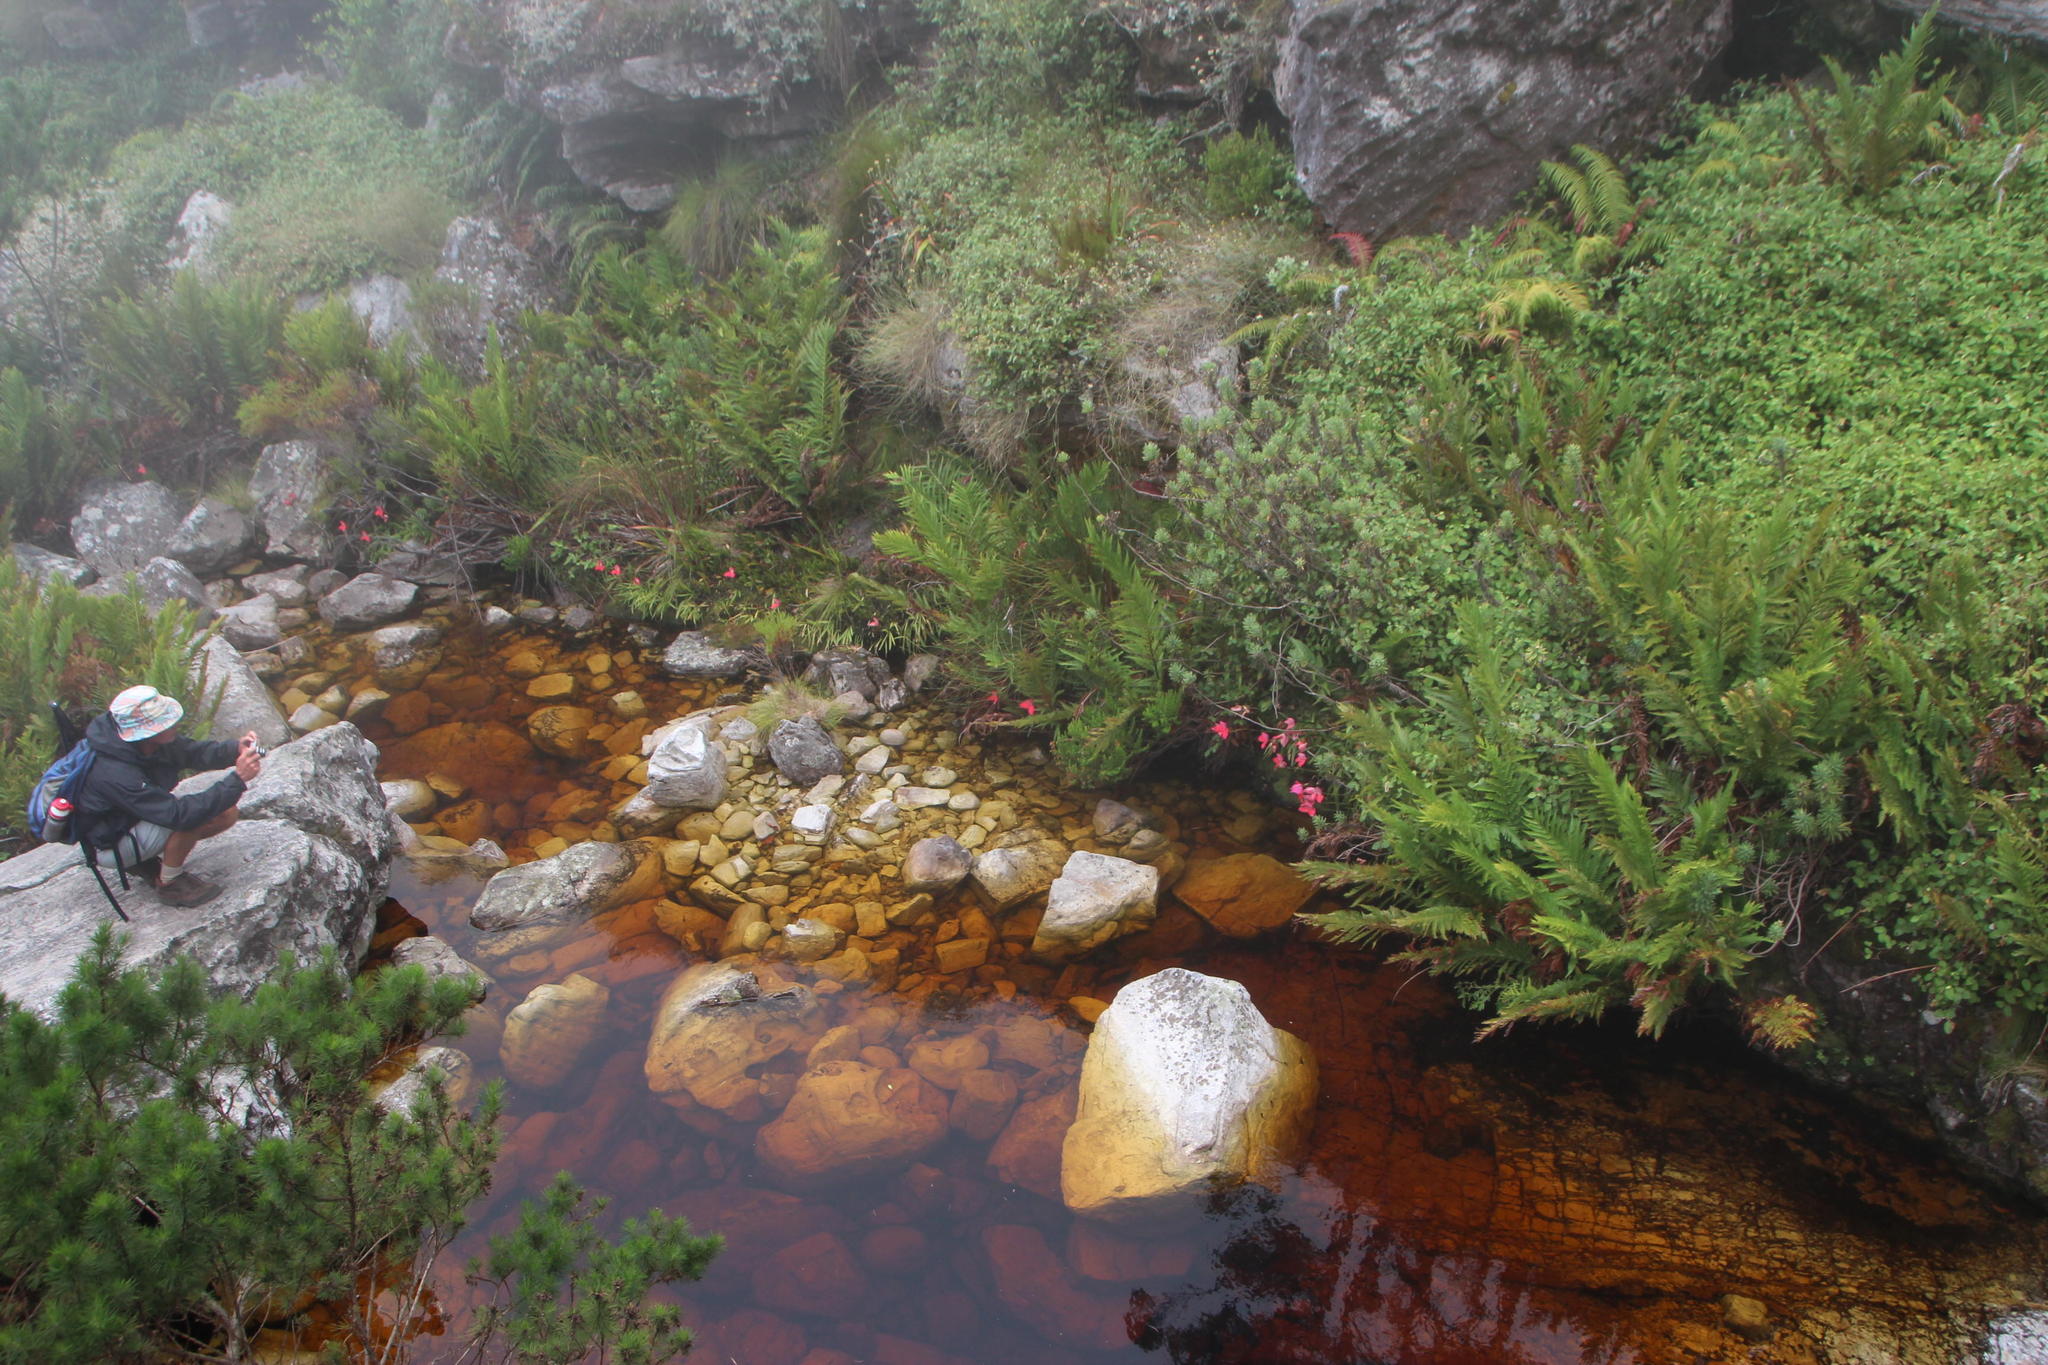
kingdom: Plantae
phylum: Tracheophyta
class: Liliopsida
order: Asparagales
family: Orchidaceae
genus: Disa
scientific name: Disa uniflora
